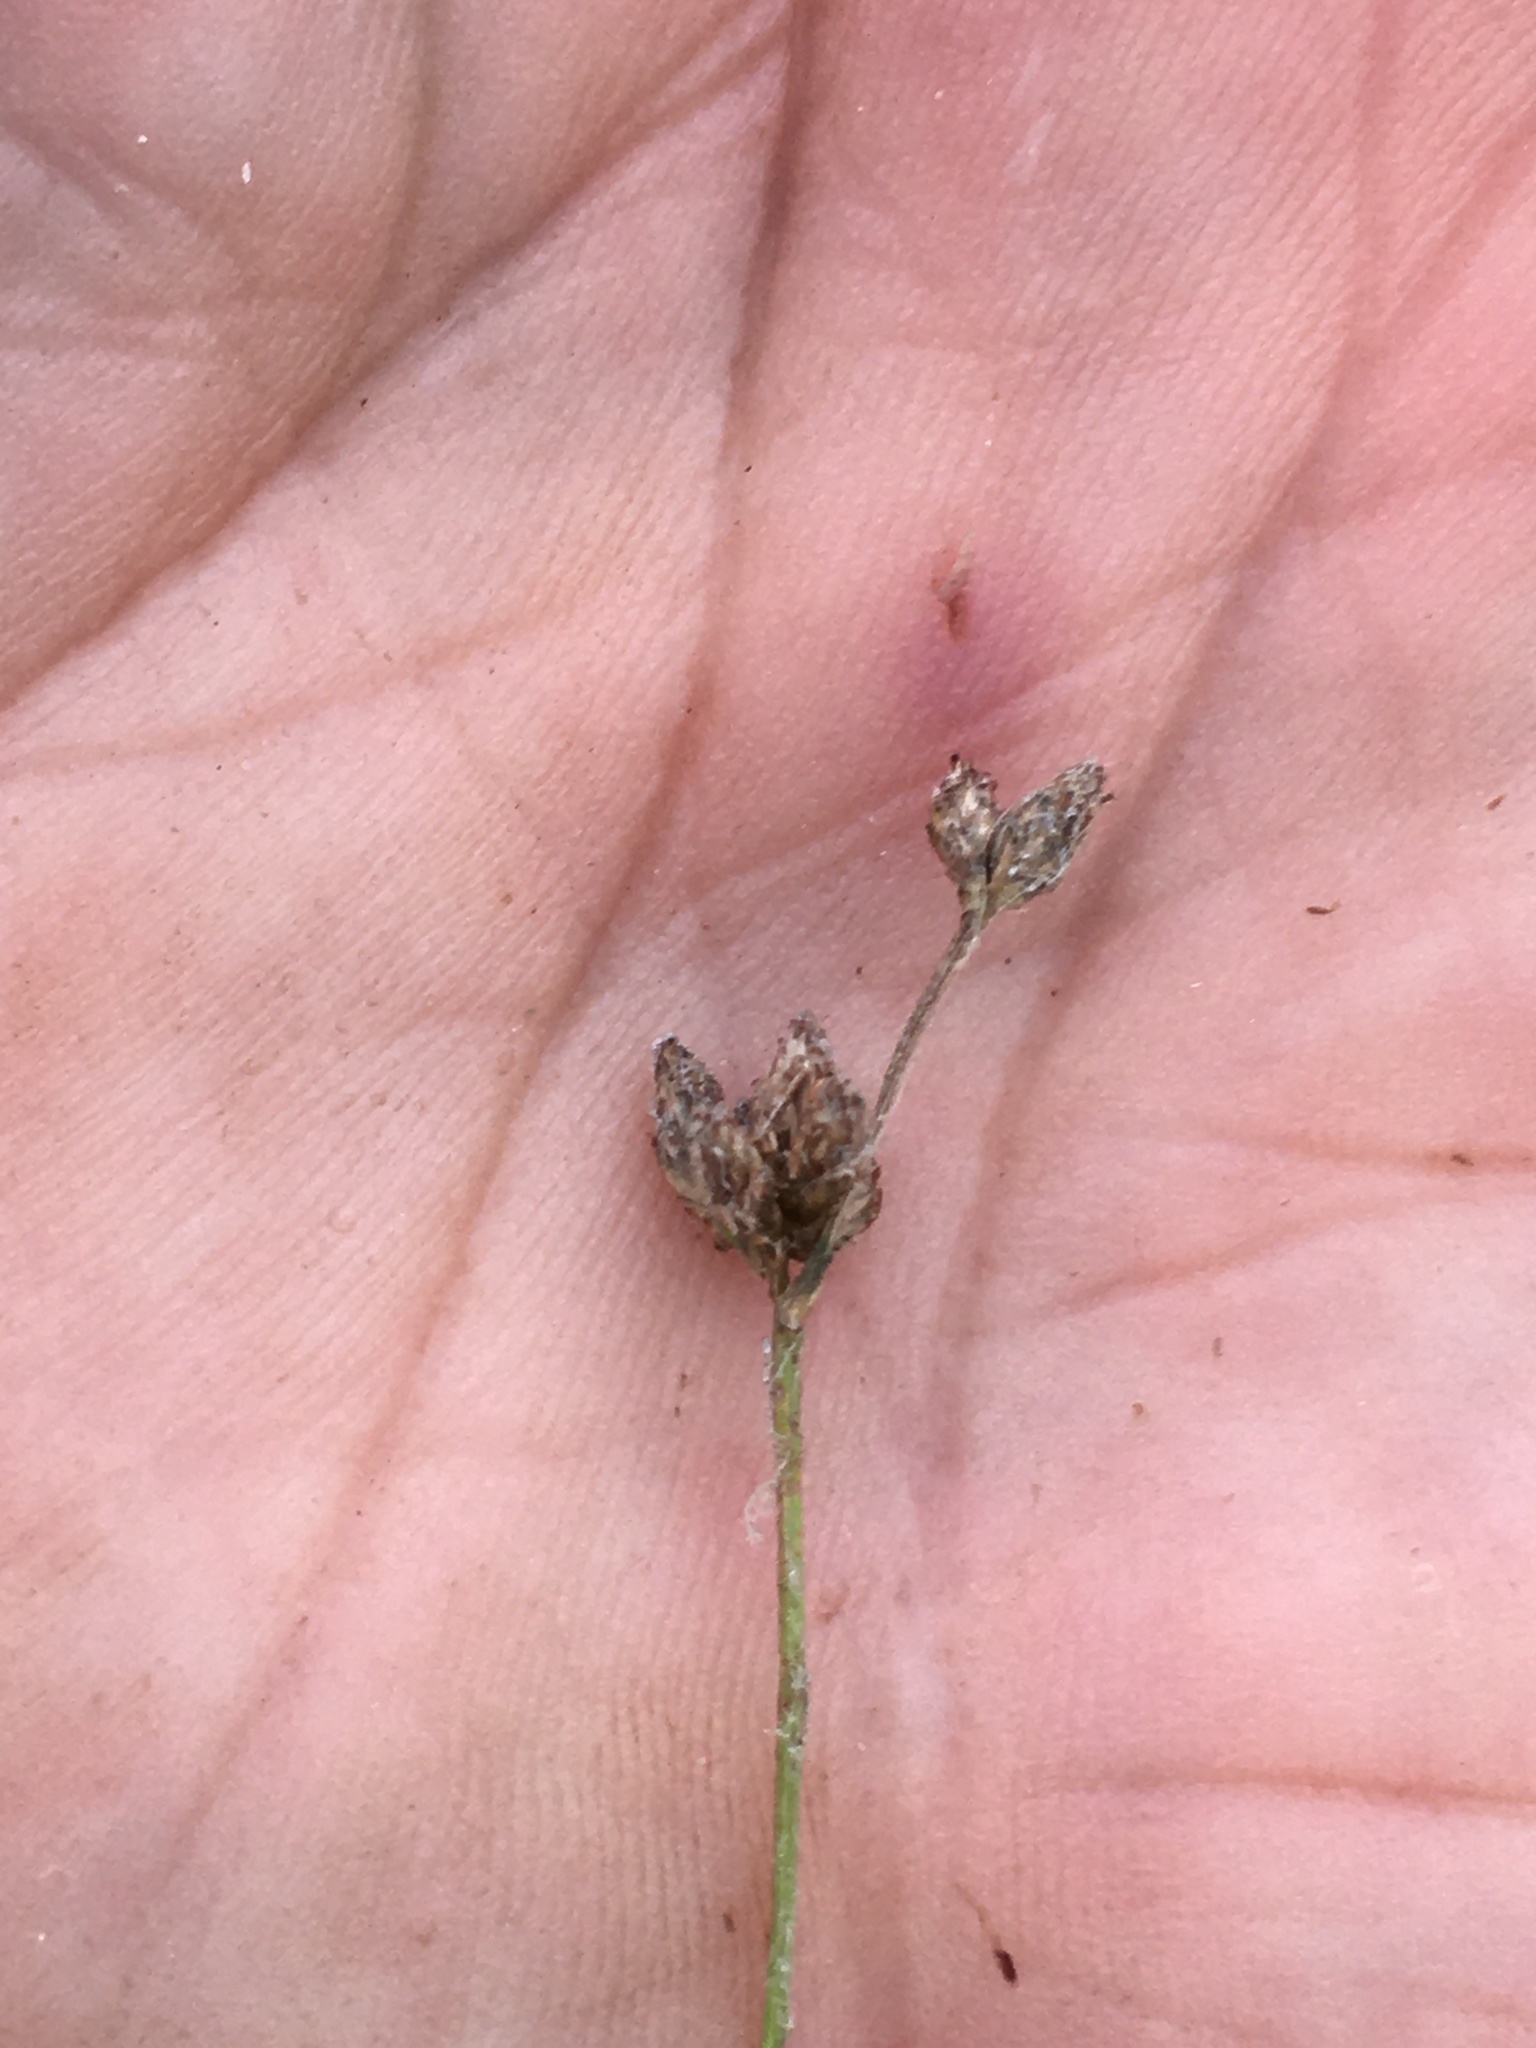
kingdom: Plantae
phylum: Tracheophyta
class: Liliopsida
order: Poales
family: Cyperaceae
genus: Scirpus
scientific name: Scirpus microcarpus
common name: Panicled bulrush
